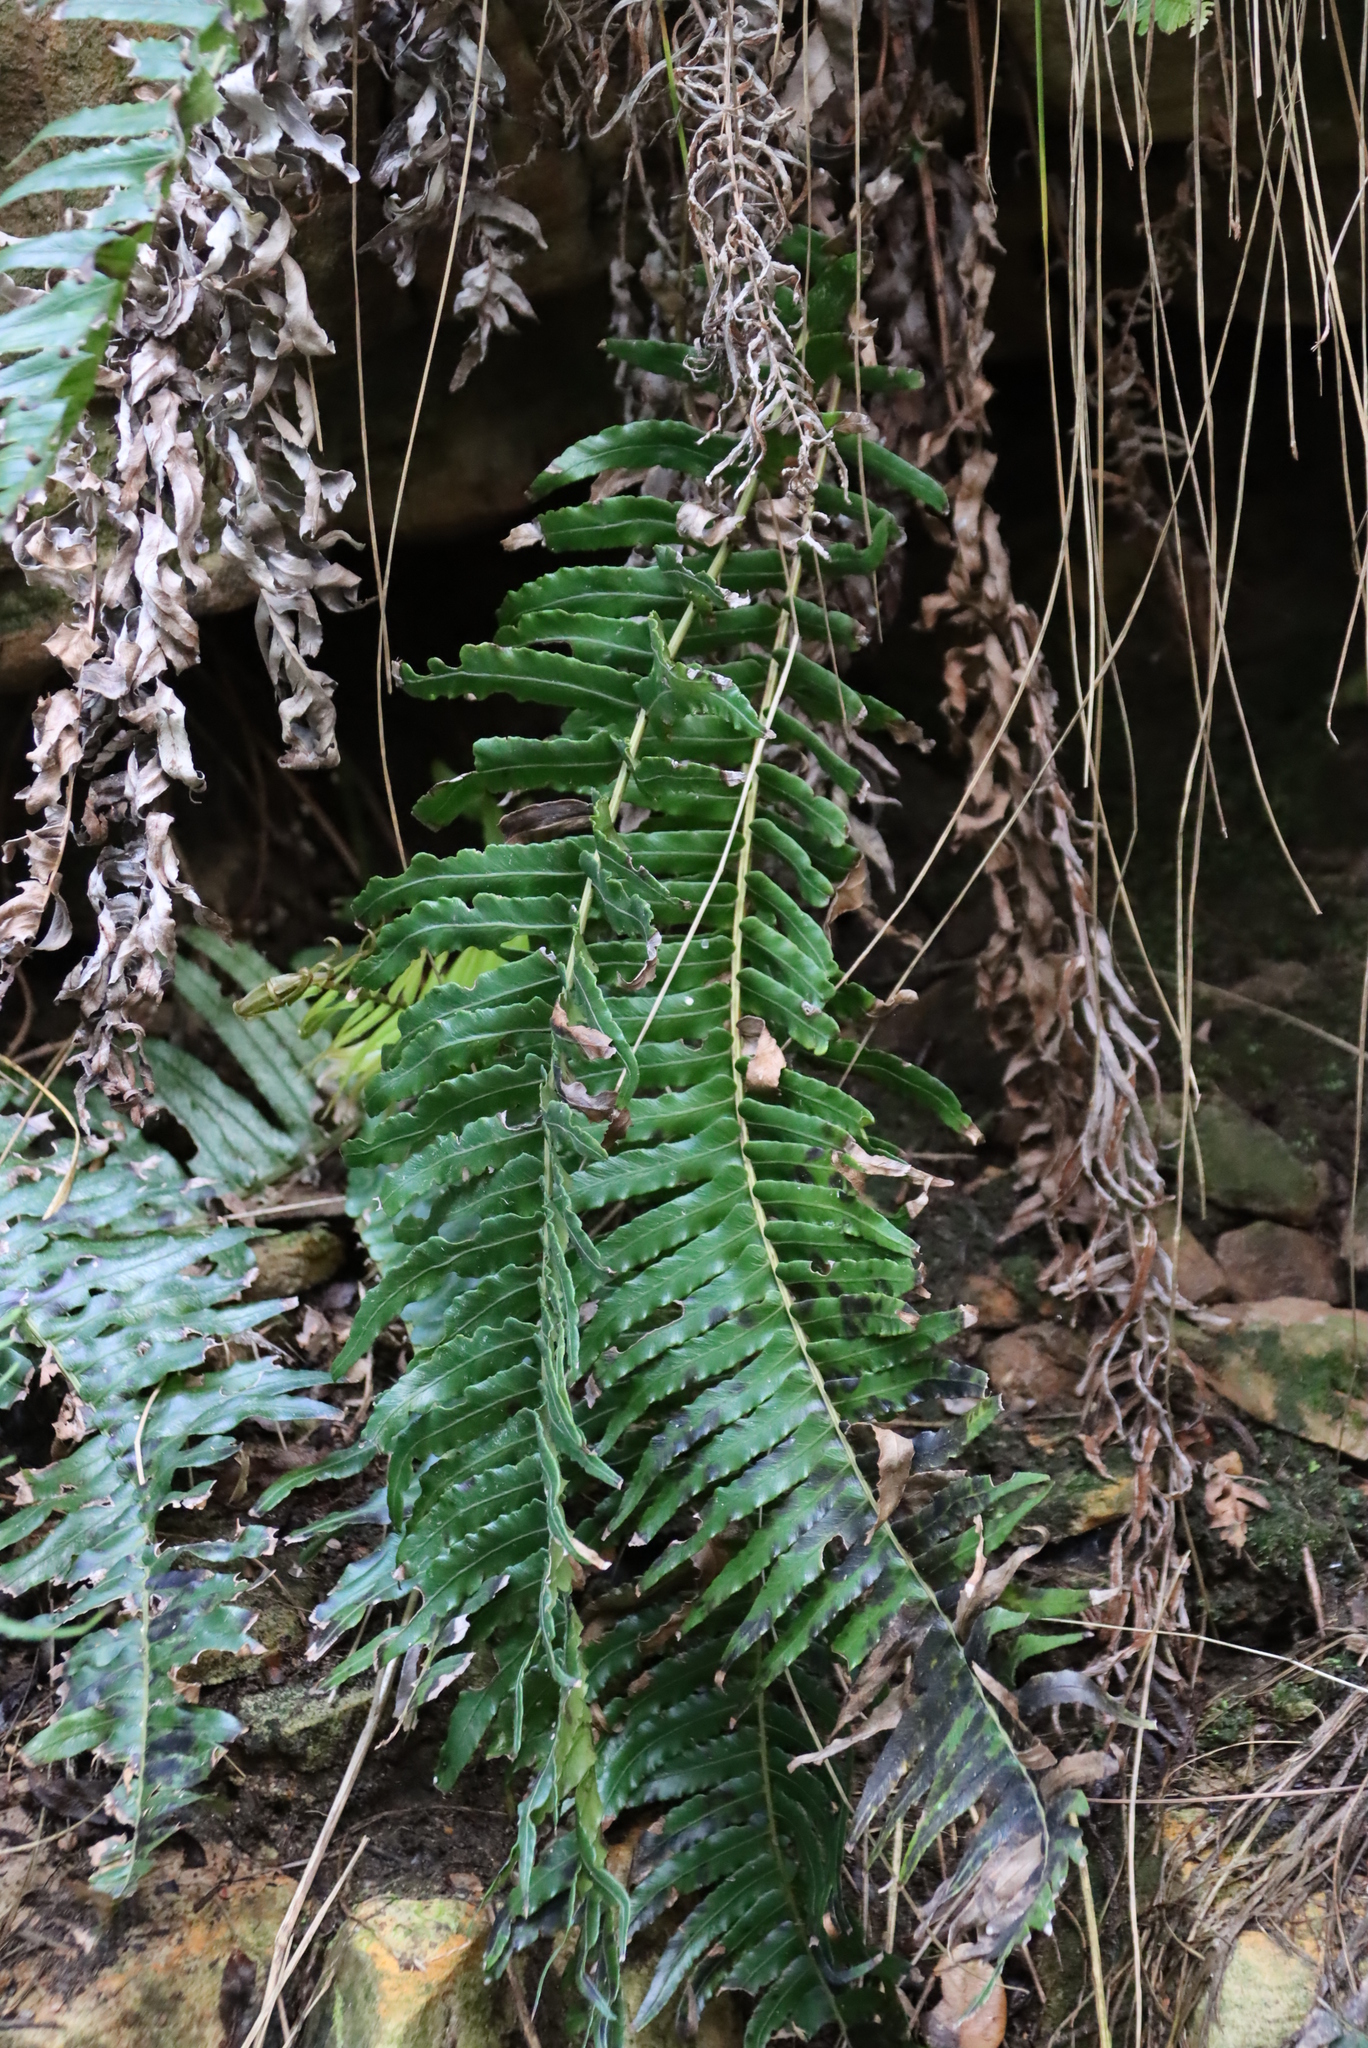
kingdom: Plantae
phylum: Tracheophyta
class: Polypodiopsida
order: Polypodiales
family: Blechnaceae
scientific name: Blechnaceae
